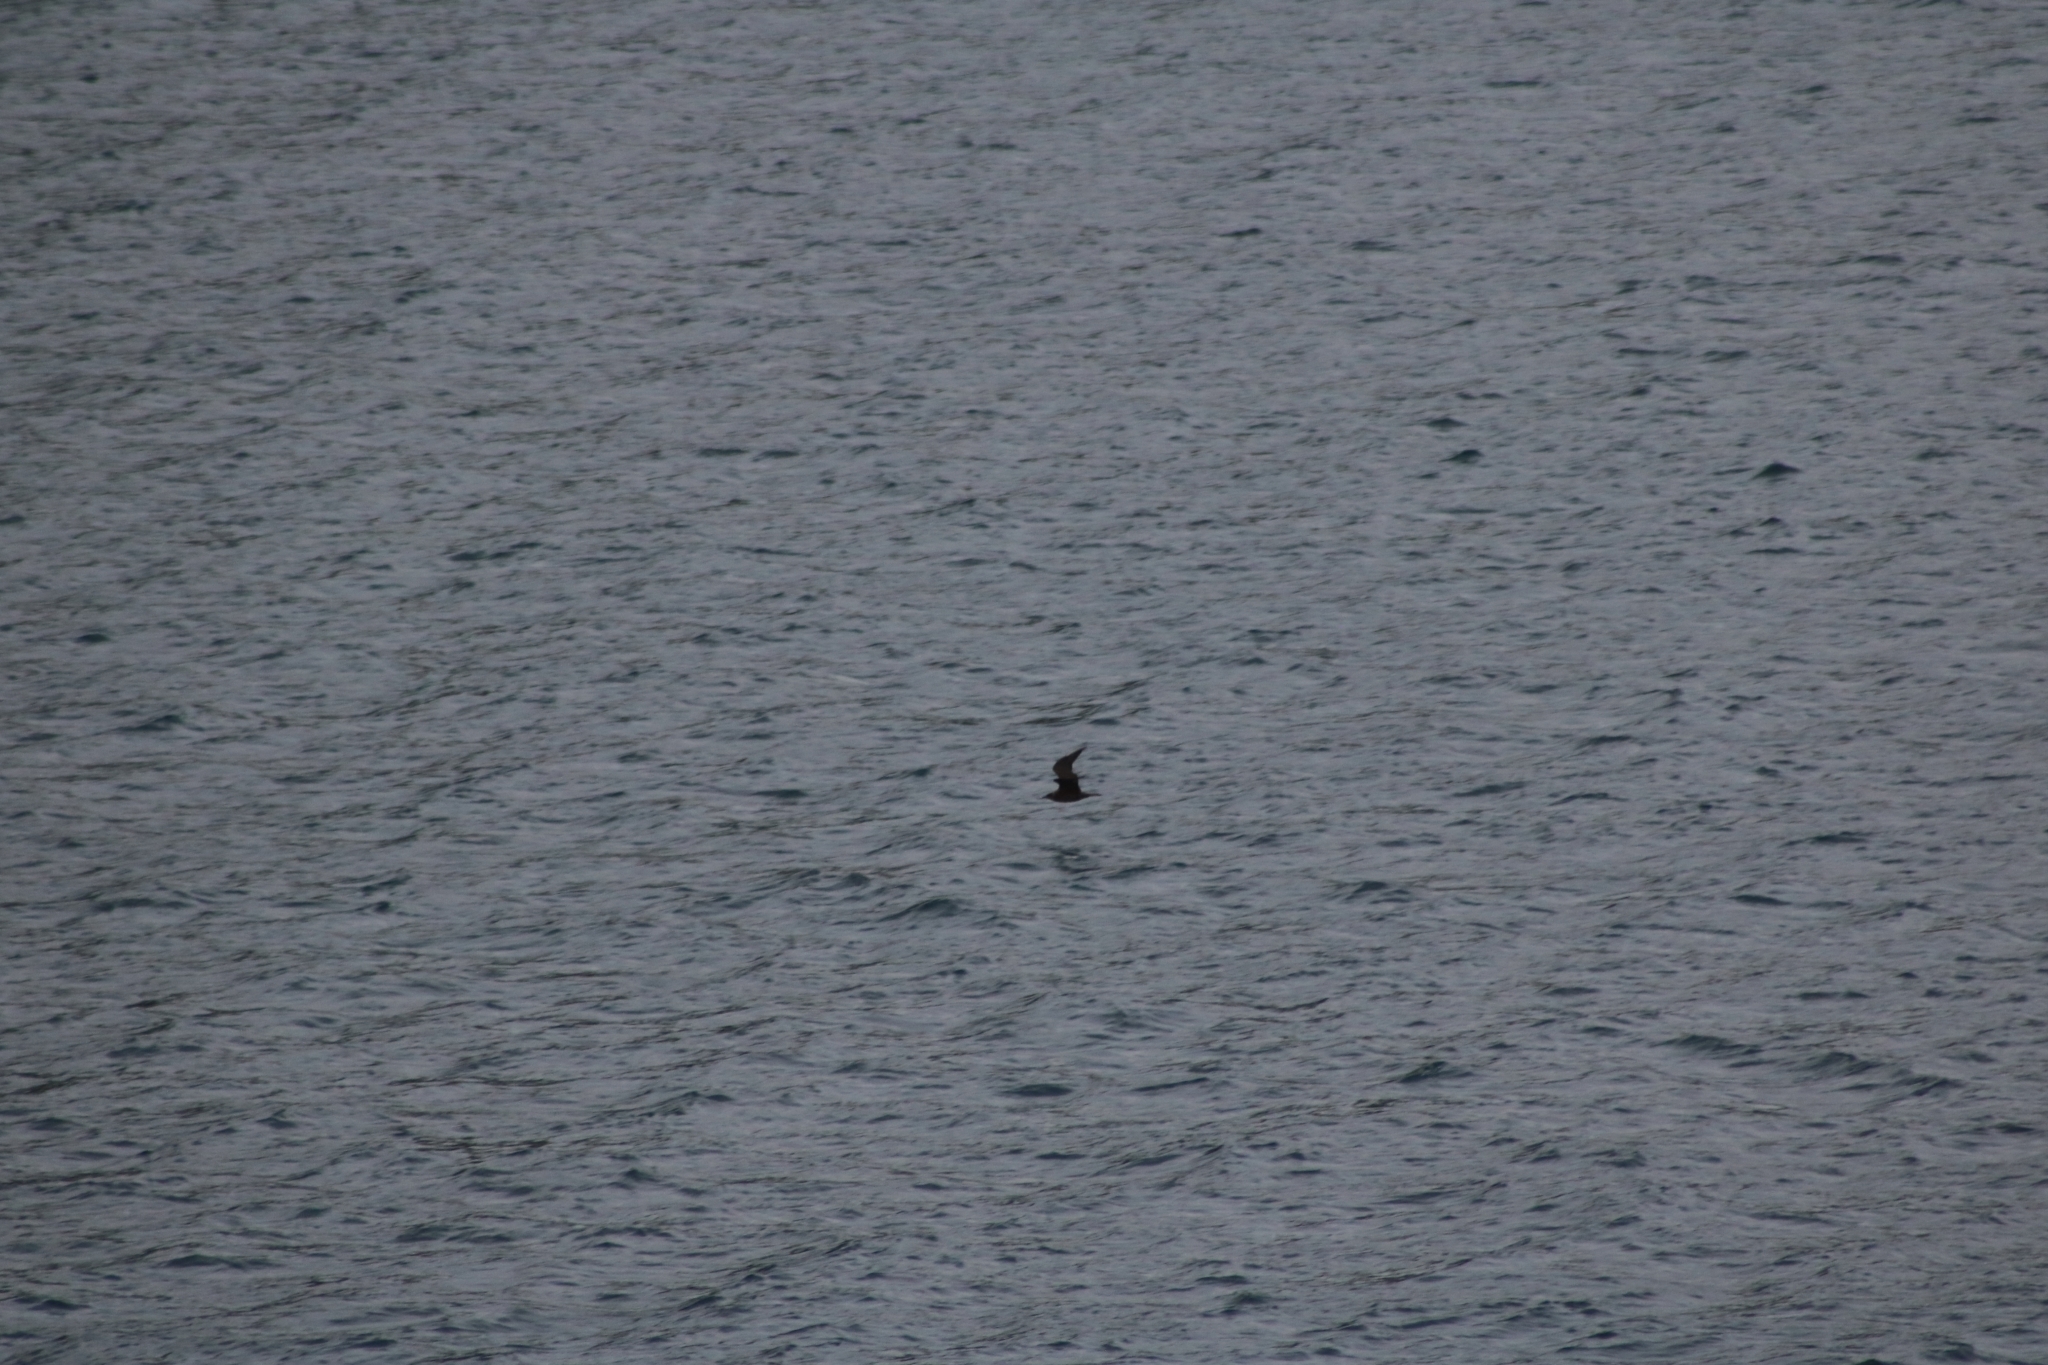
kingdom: Animalia
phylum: Chordata
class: Aves
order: Charadriiformes
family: Stercorariidae
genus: Stercorarius
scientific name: Stercorarius parasiticus
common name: Parasitic jaeger
